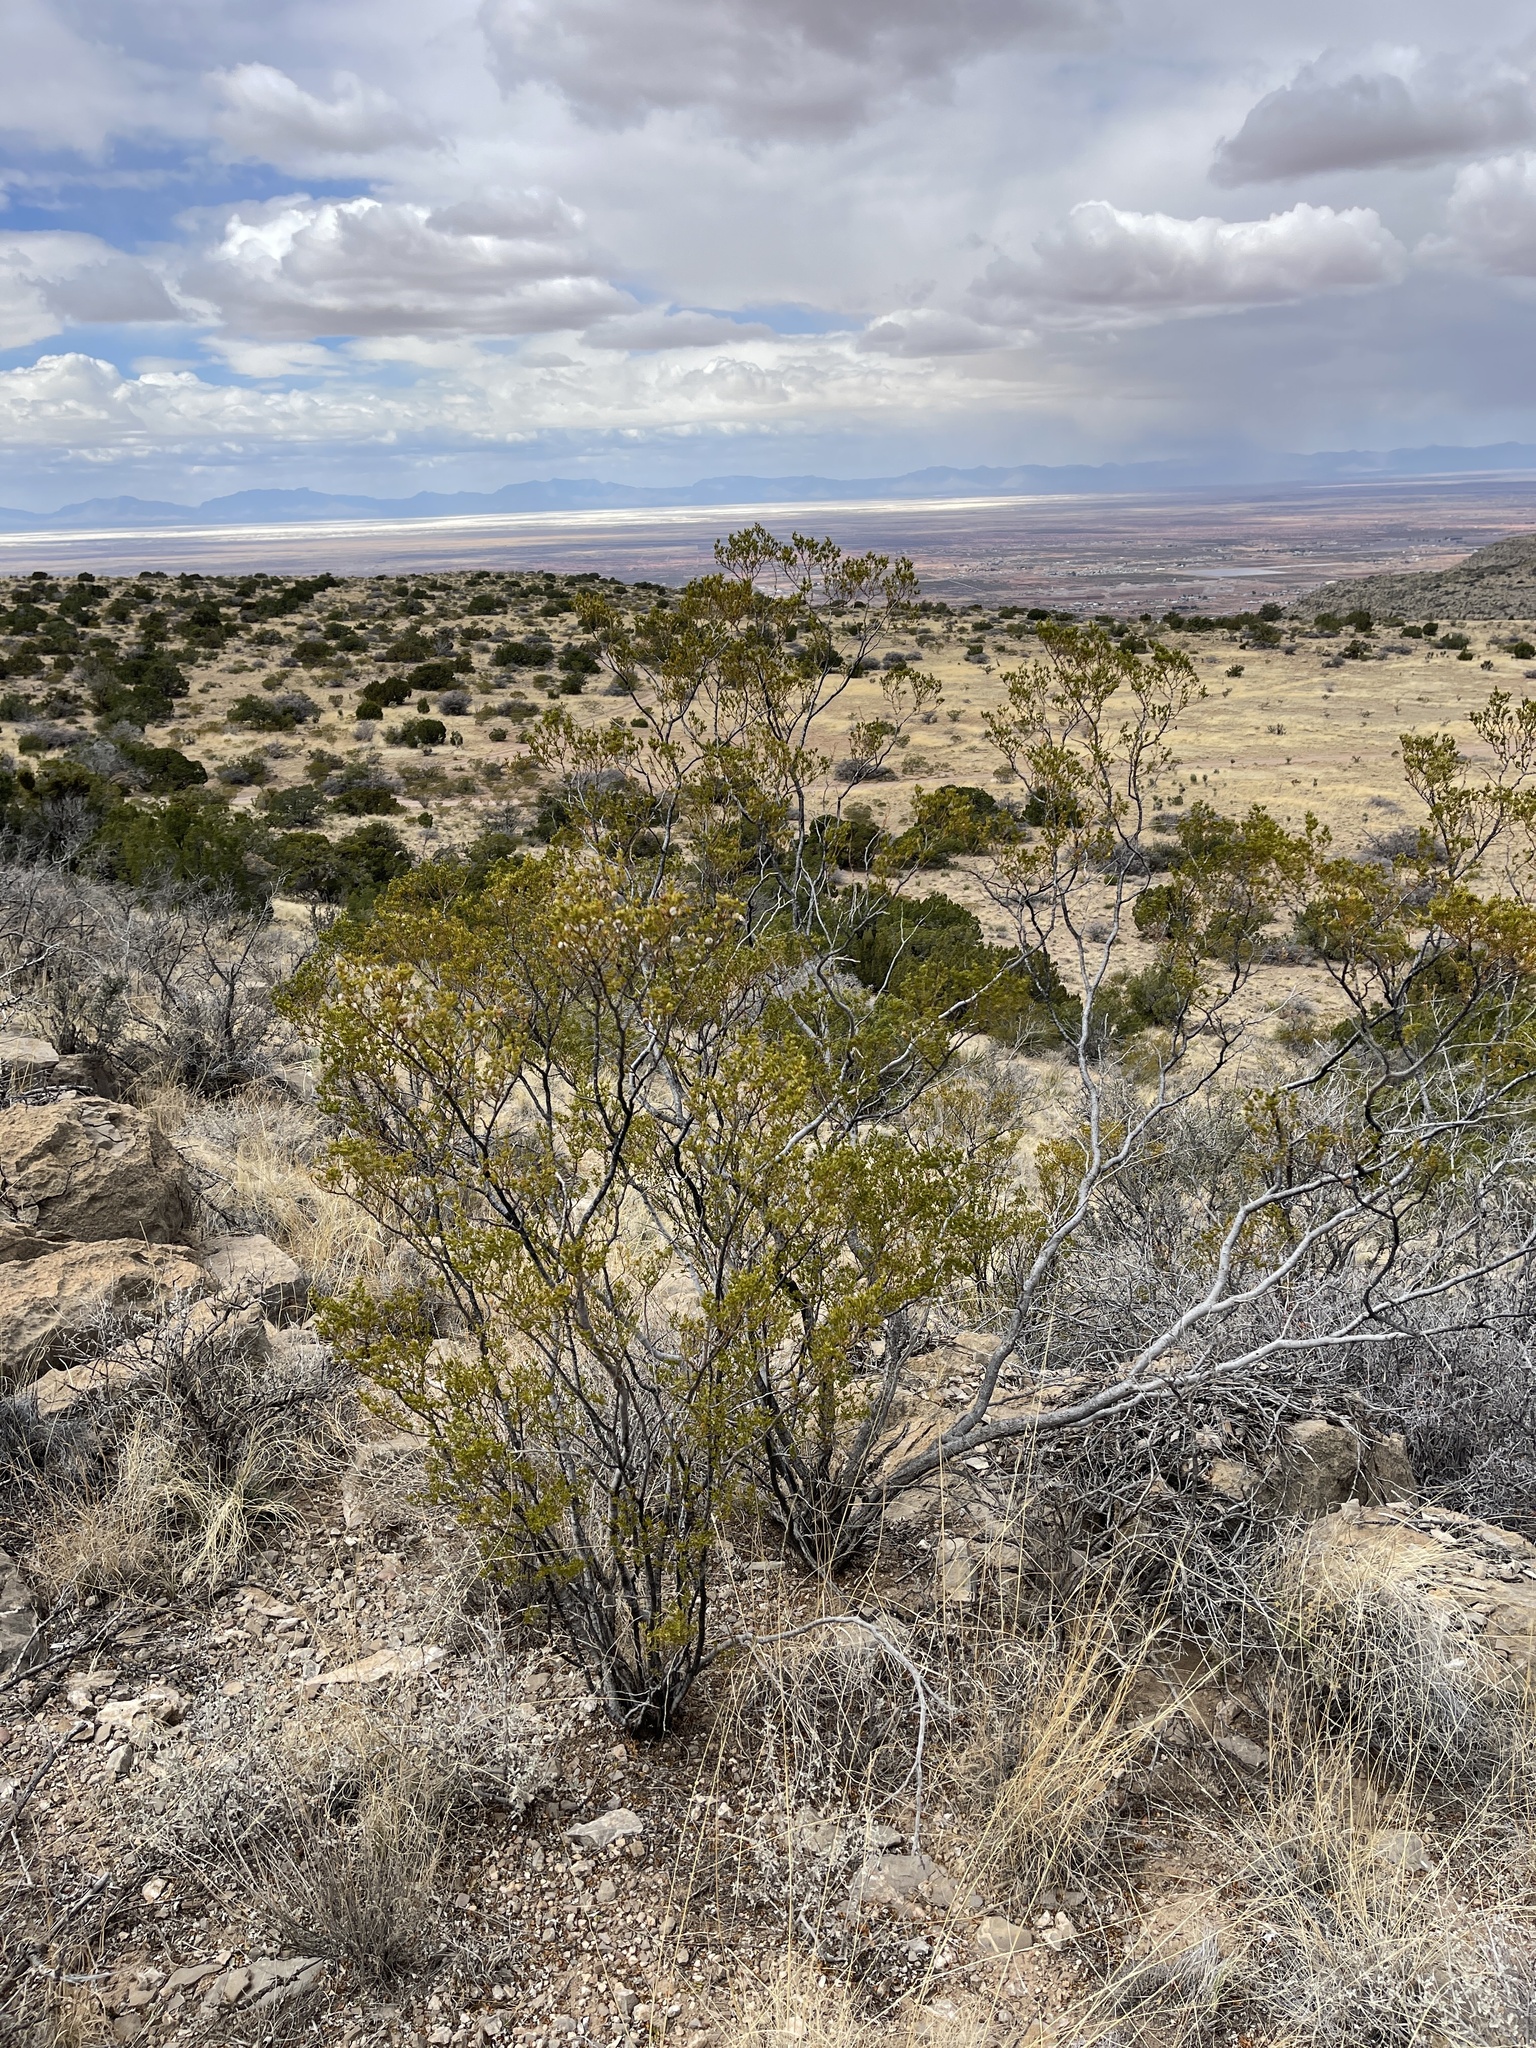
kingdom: Plantae
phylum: Tracheophyta
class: Magnoliopsida
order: Zygophyllales
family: Zygophyllaceae
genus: Larrea
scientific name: Larrea tridentata
